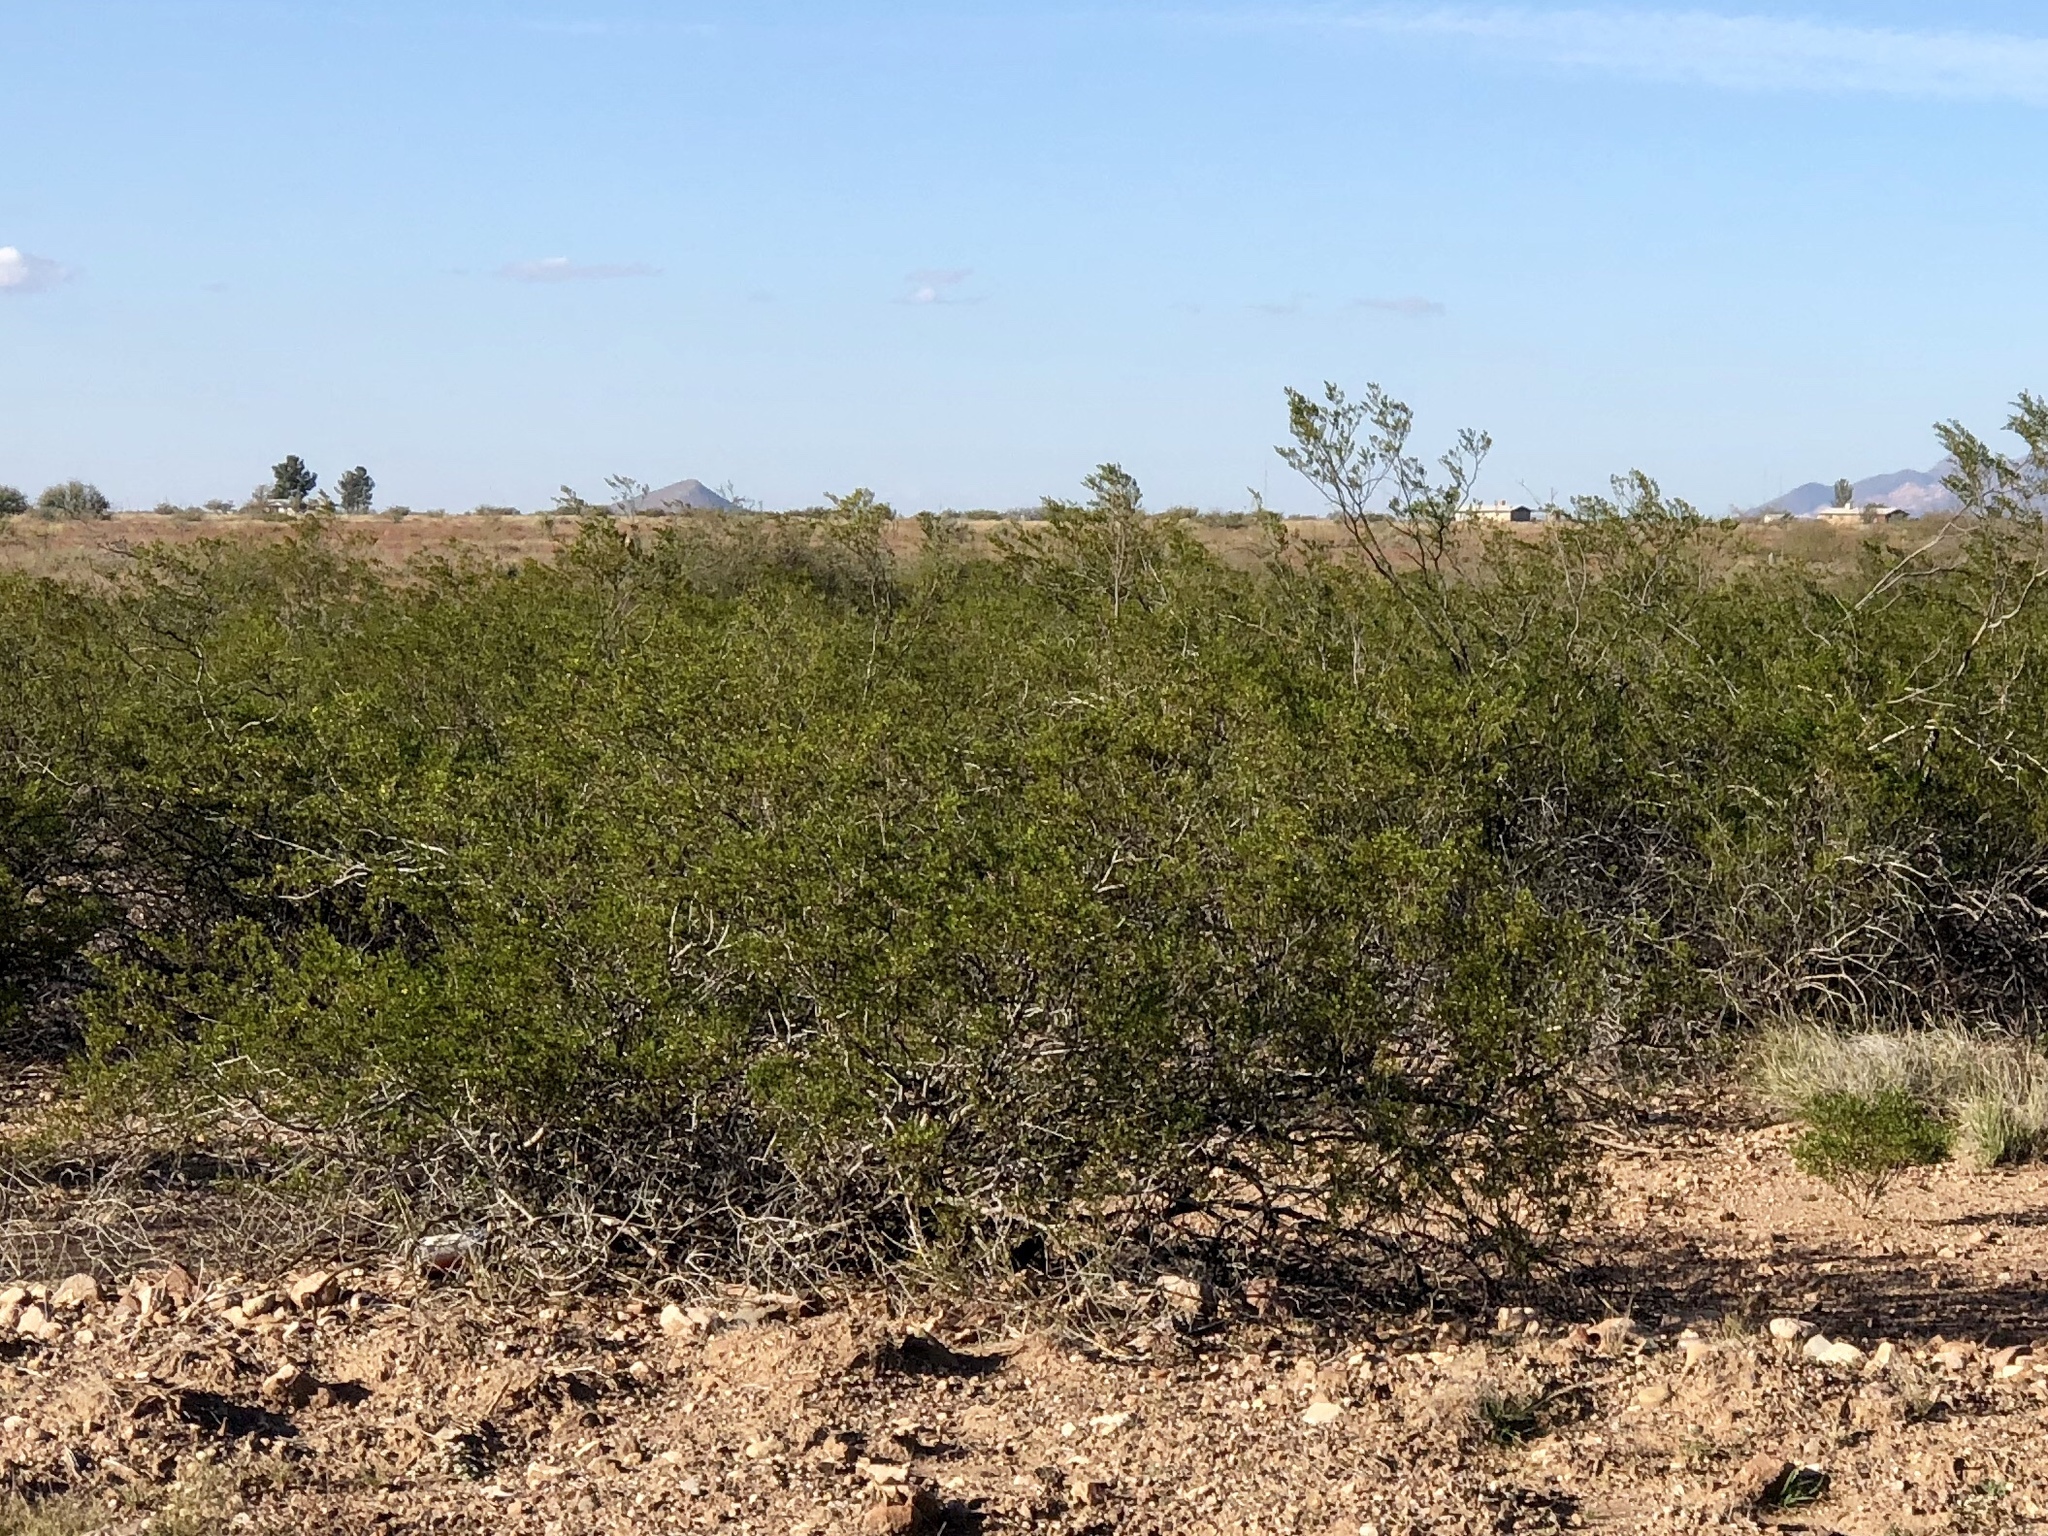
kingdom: Plantae
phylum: Tracheophyta
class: Magnoliopsida
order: Zygophyllales
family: Zygophyllaceae
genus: Larrea
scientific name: Larrea tridentata
